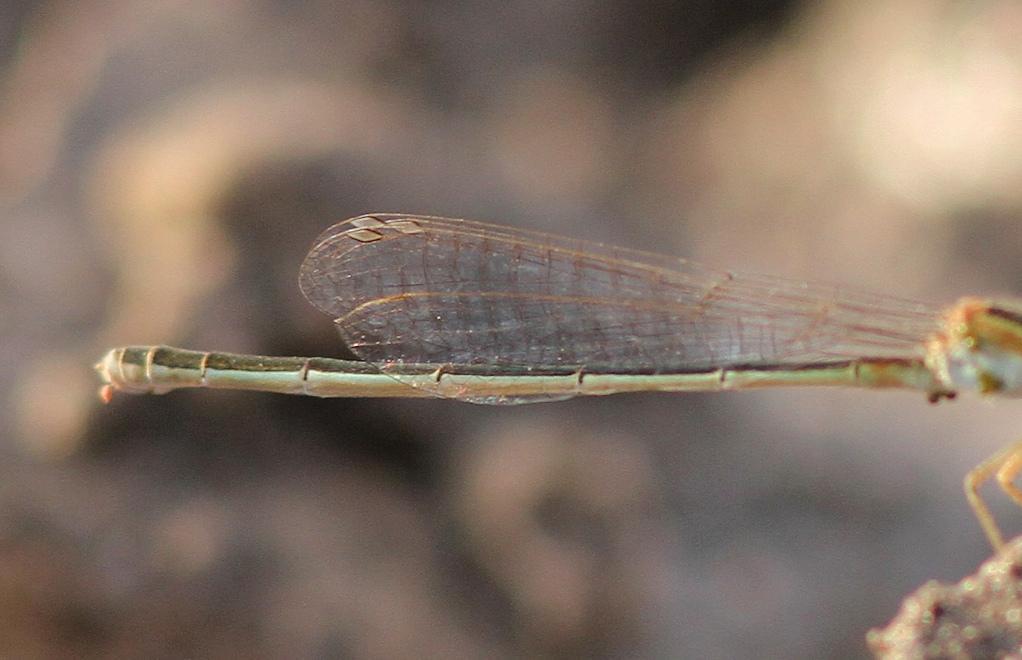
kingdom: Animalia
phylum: Arthropoda
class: Insecta
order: Odonata
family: Coenagrionidae
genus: Ischnura
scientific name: Ischnura senegalensis
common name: Tropical bluetail
